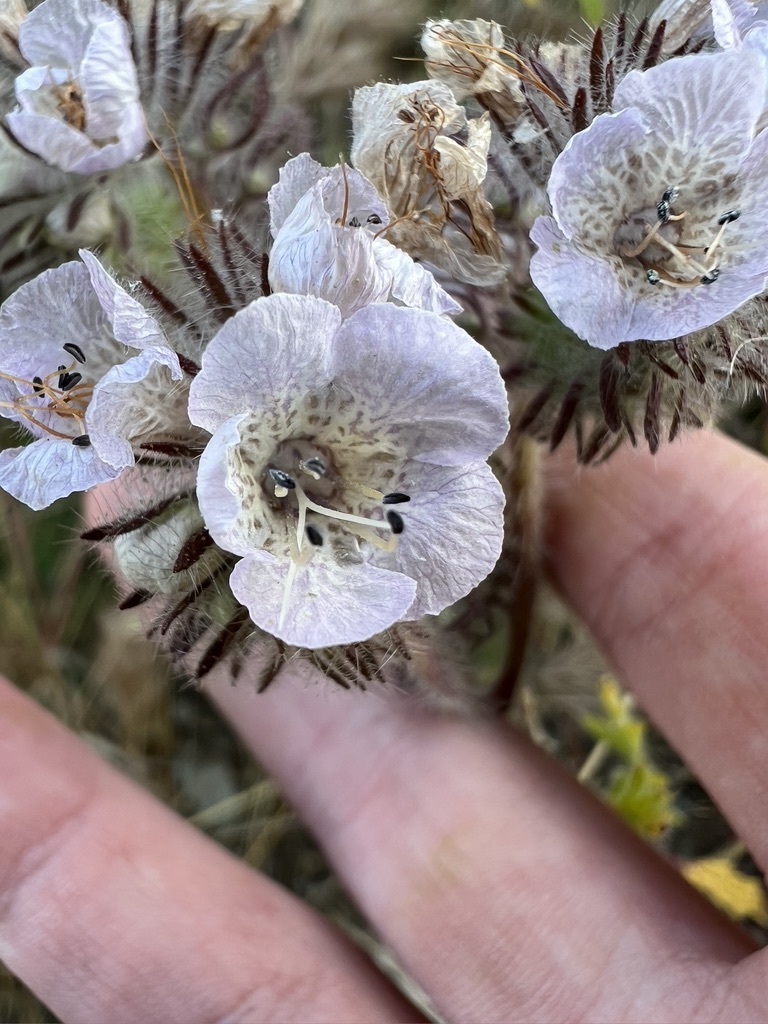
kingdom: Plantae
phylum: Tracheophyta
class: Magnoliopsida
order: Boraginales
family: Hydrophyllaceae
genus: Phacelia
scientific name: Phacelia cicutaria
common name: Caterpillar phacelia
